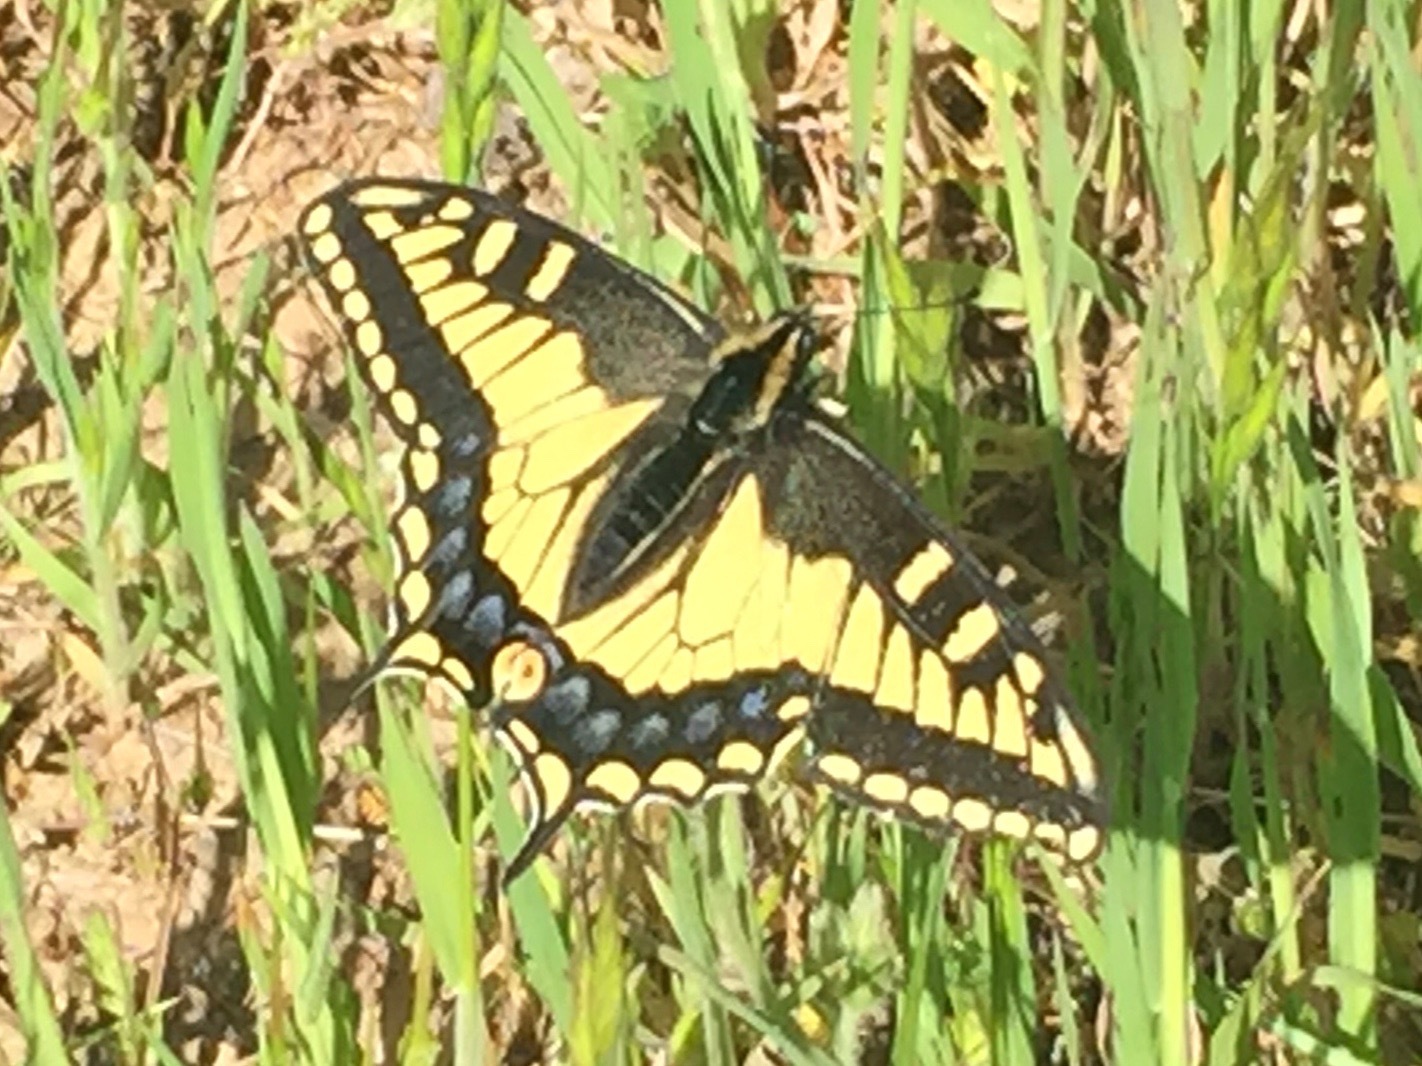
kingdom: Animalia
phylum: Arthropoda
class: Insecta
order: Lepidoptera
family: Papilionidae
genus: Papilio
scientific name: Papilio zelicaon
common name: Anise swallowtail
